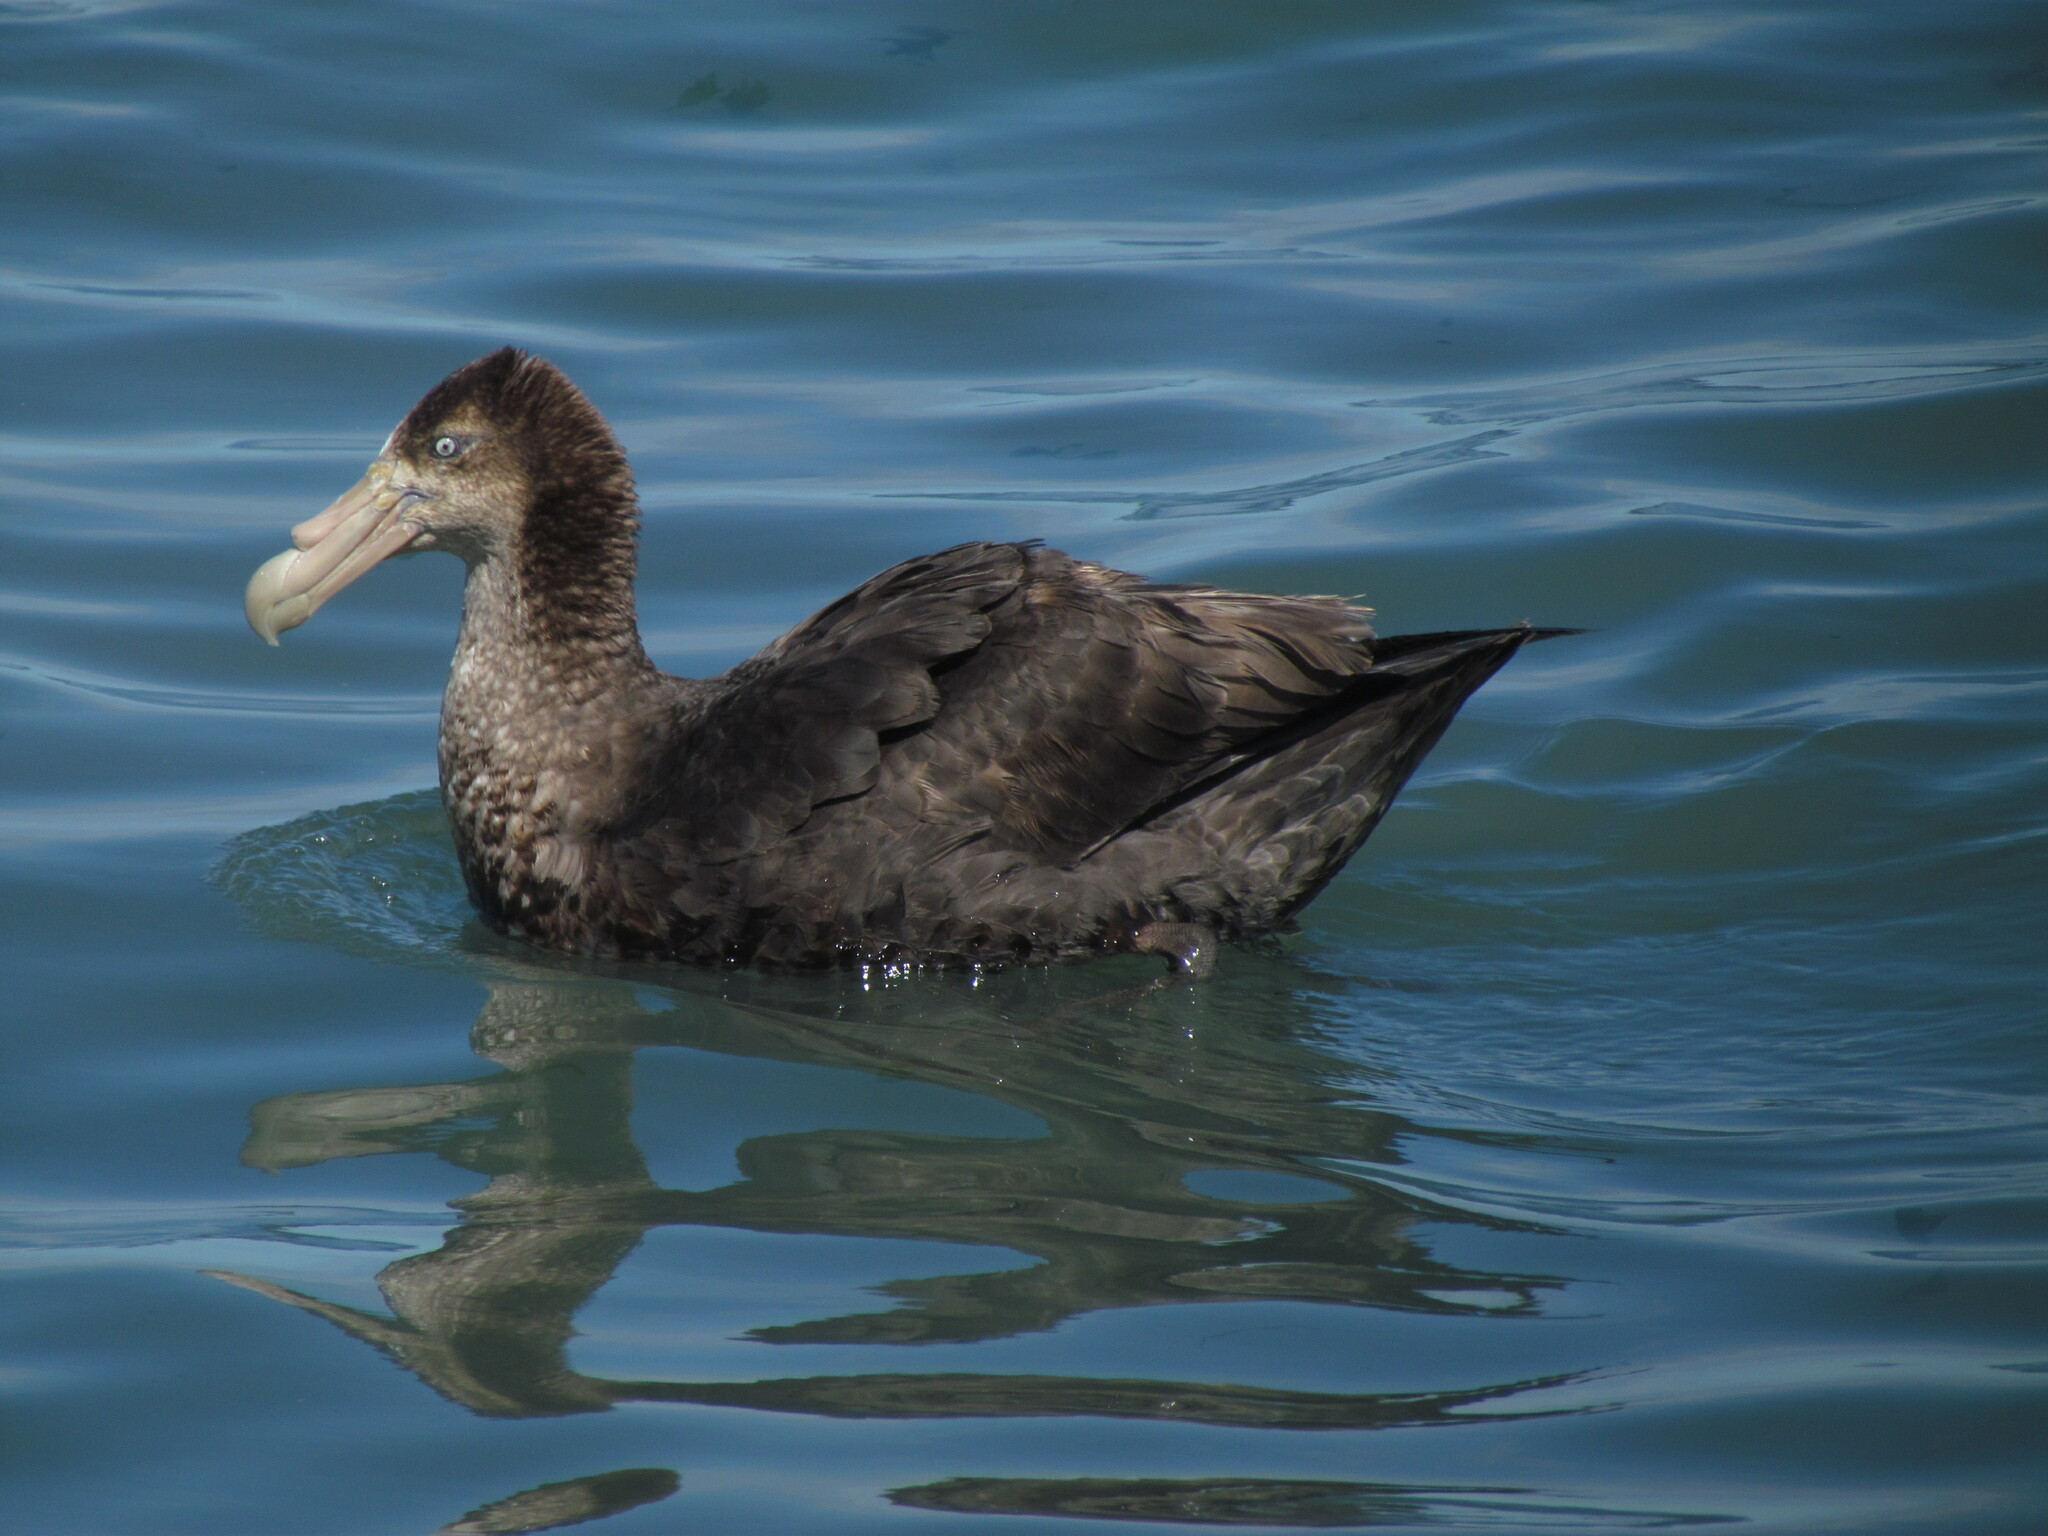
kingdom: Animalia
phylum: Chordata
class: Aves
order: Procellariiformes
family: Procellariidae
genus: Macronectes
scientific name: Macronectes giganteus
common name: Southern giant petrel
